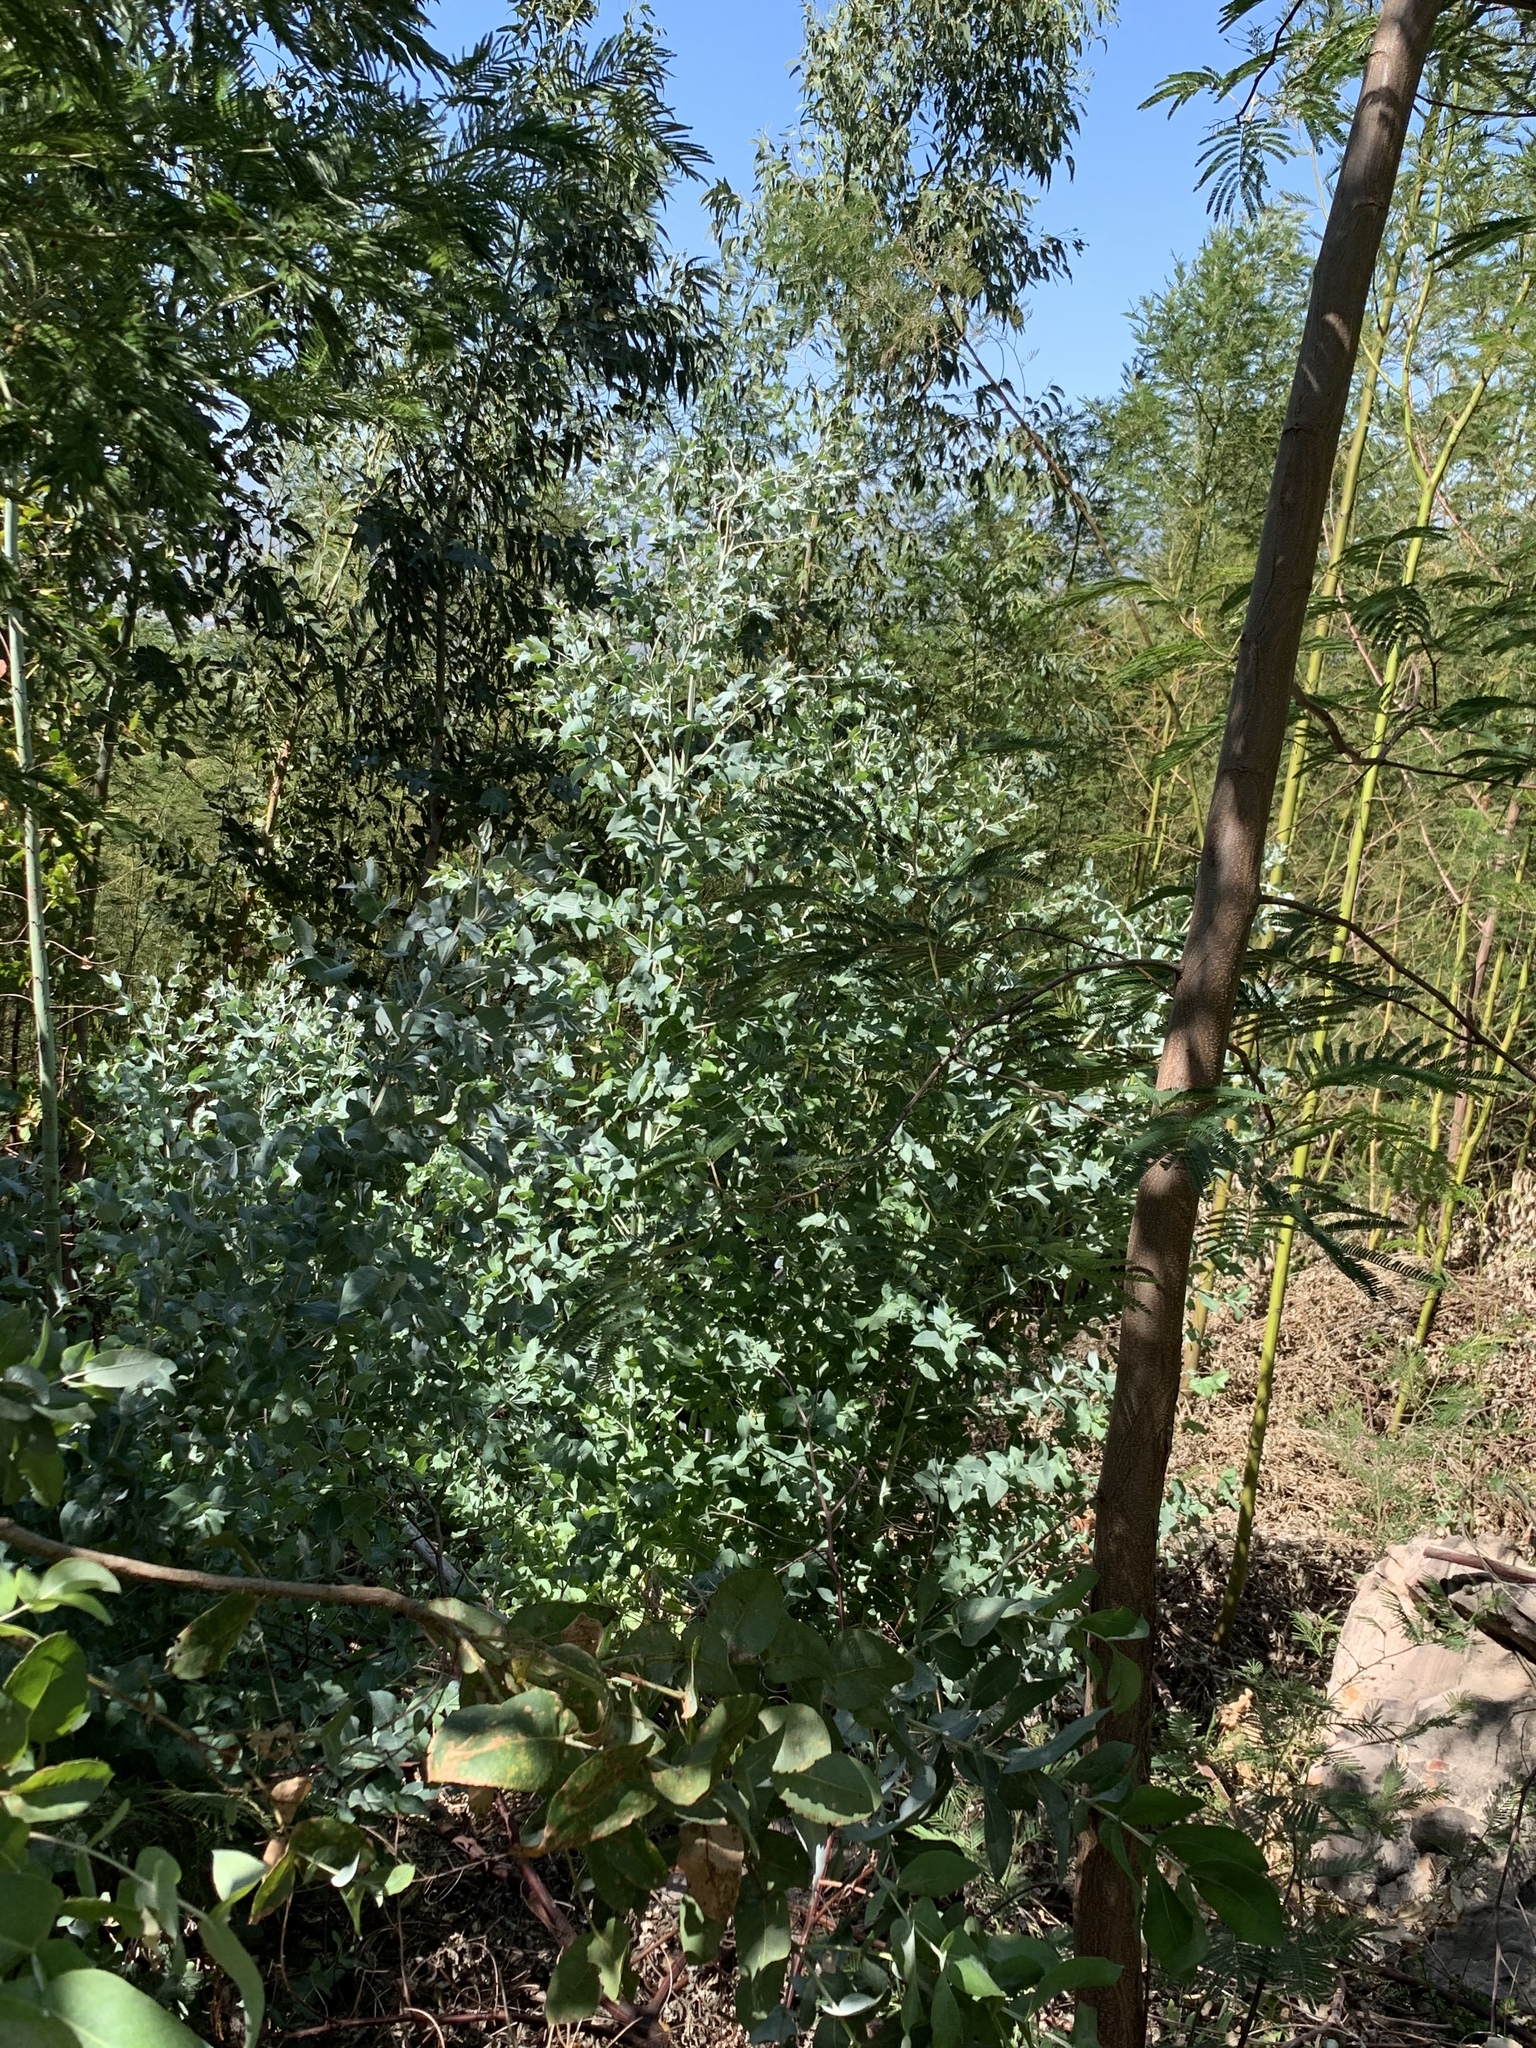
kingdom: Plantae
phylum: Tracheophyta
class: Magnoliopsida
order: Myrtales
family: Myrtaceae
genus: Eucalyptus
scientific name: Eucalyptus cinerea
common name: Argyle apple
